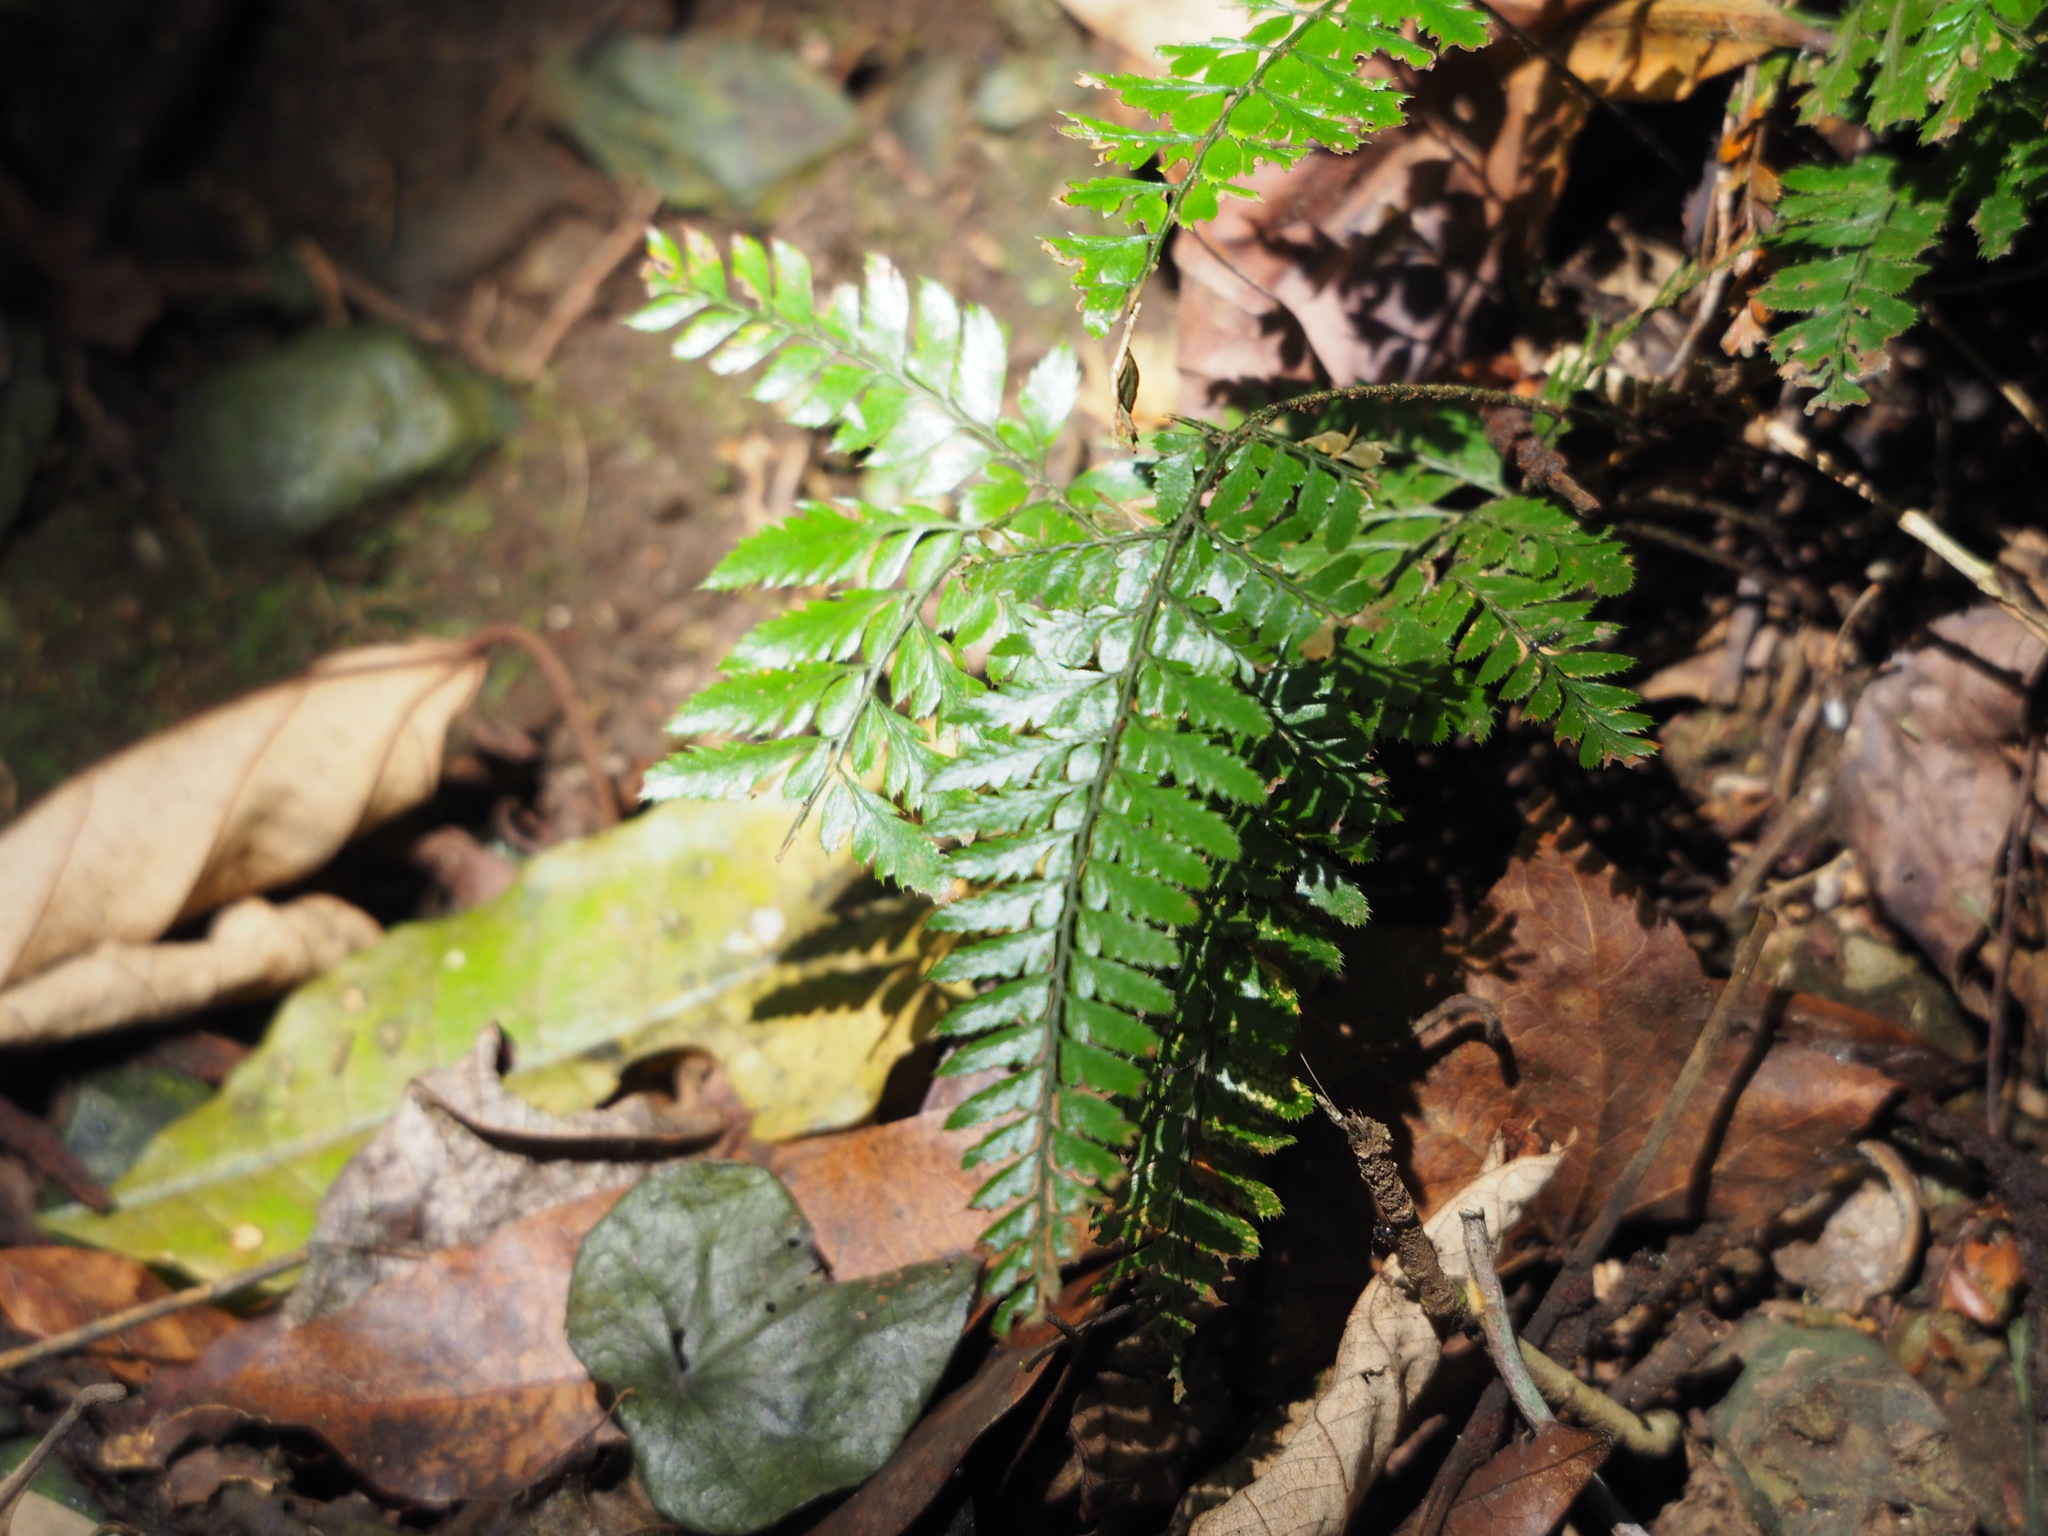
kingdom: Plantae
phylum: Tracheophyta
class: Polypodiopsida
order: Polypodiales
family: Dryopteridaceae
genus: Arachniodes
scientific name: Arachniodes aristata
